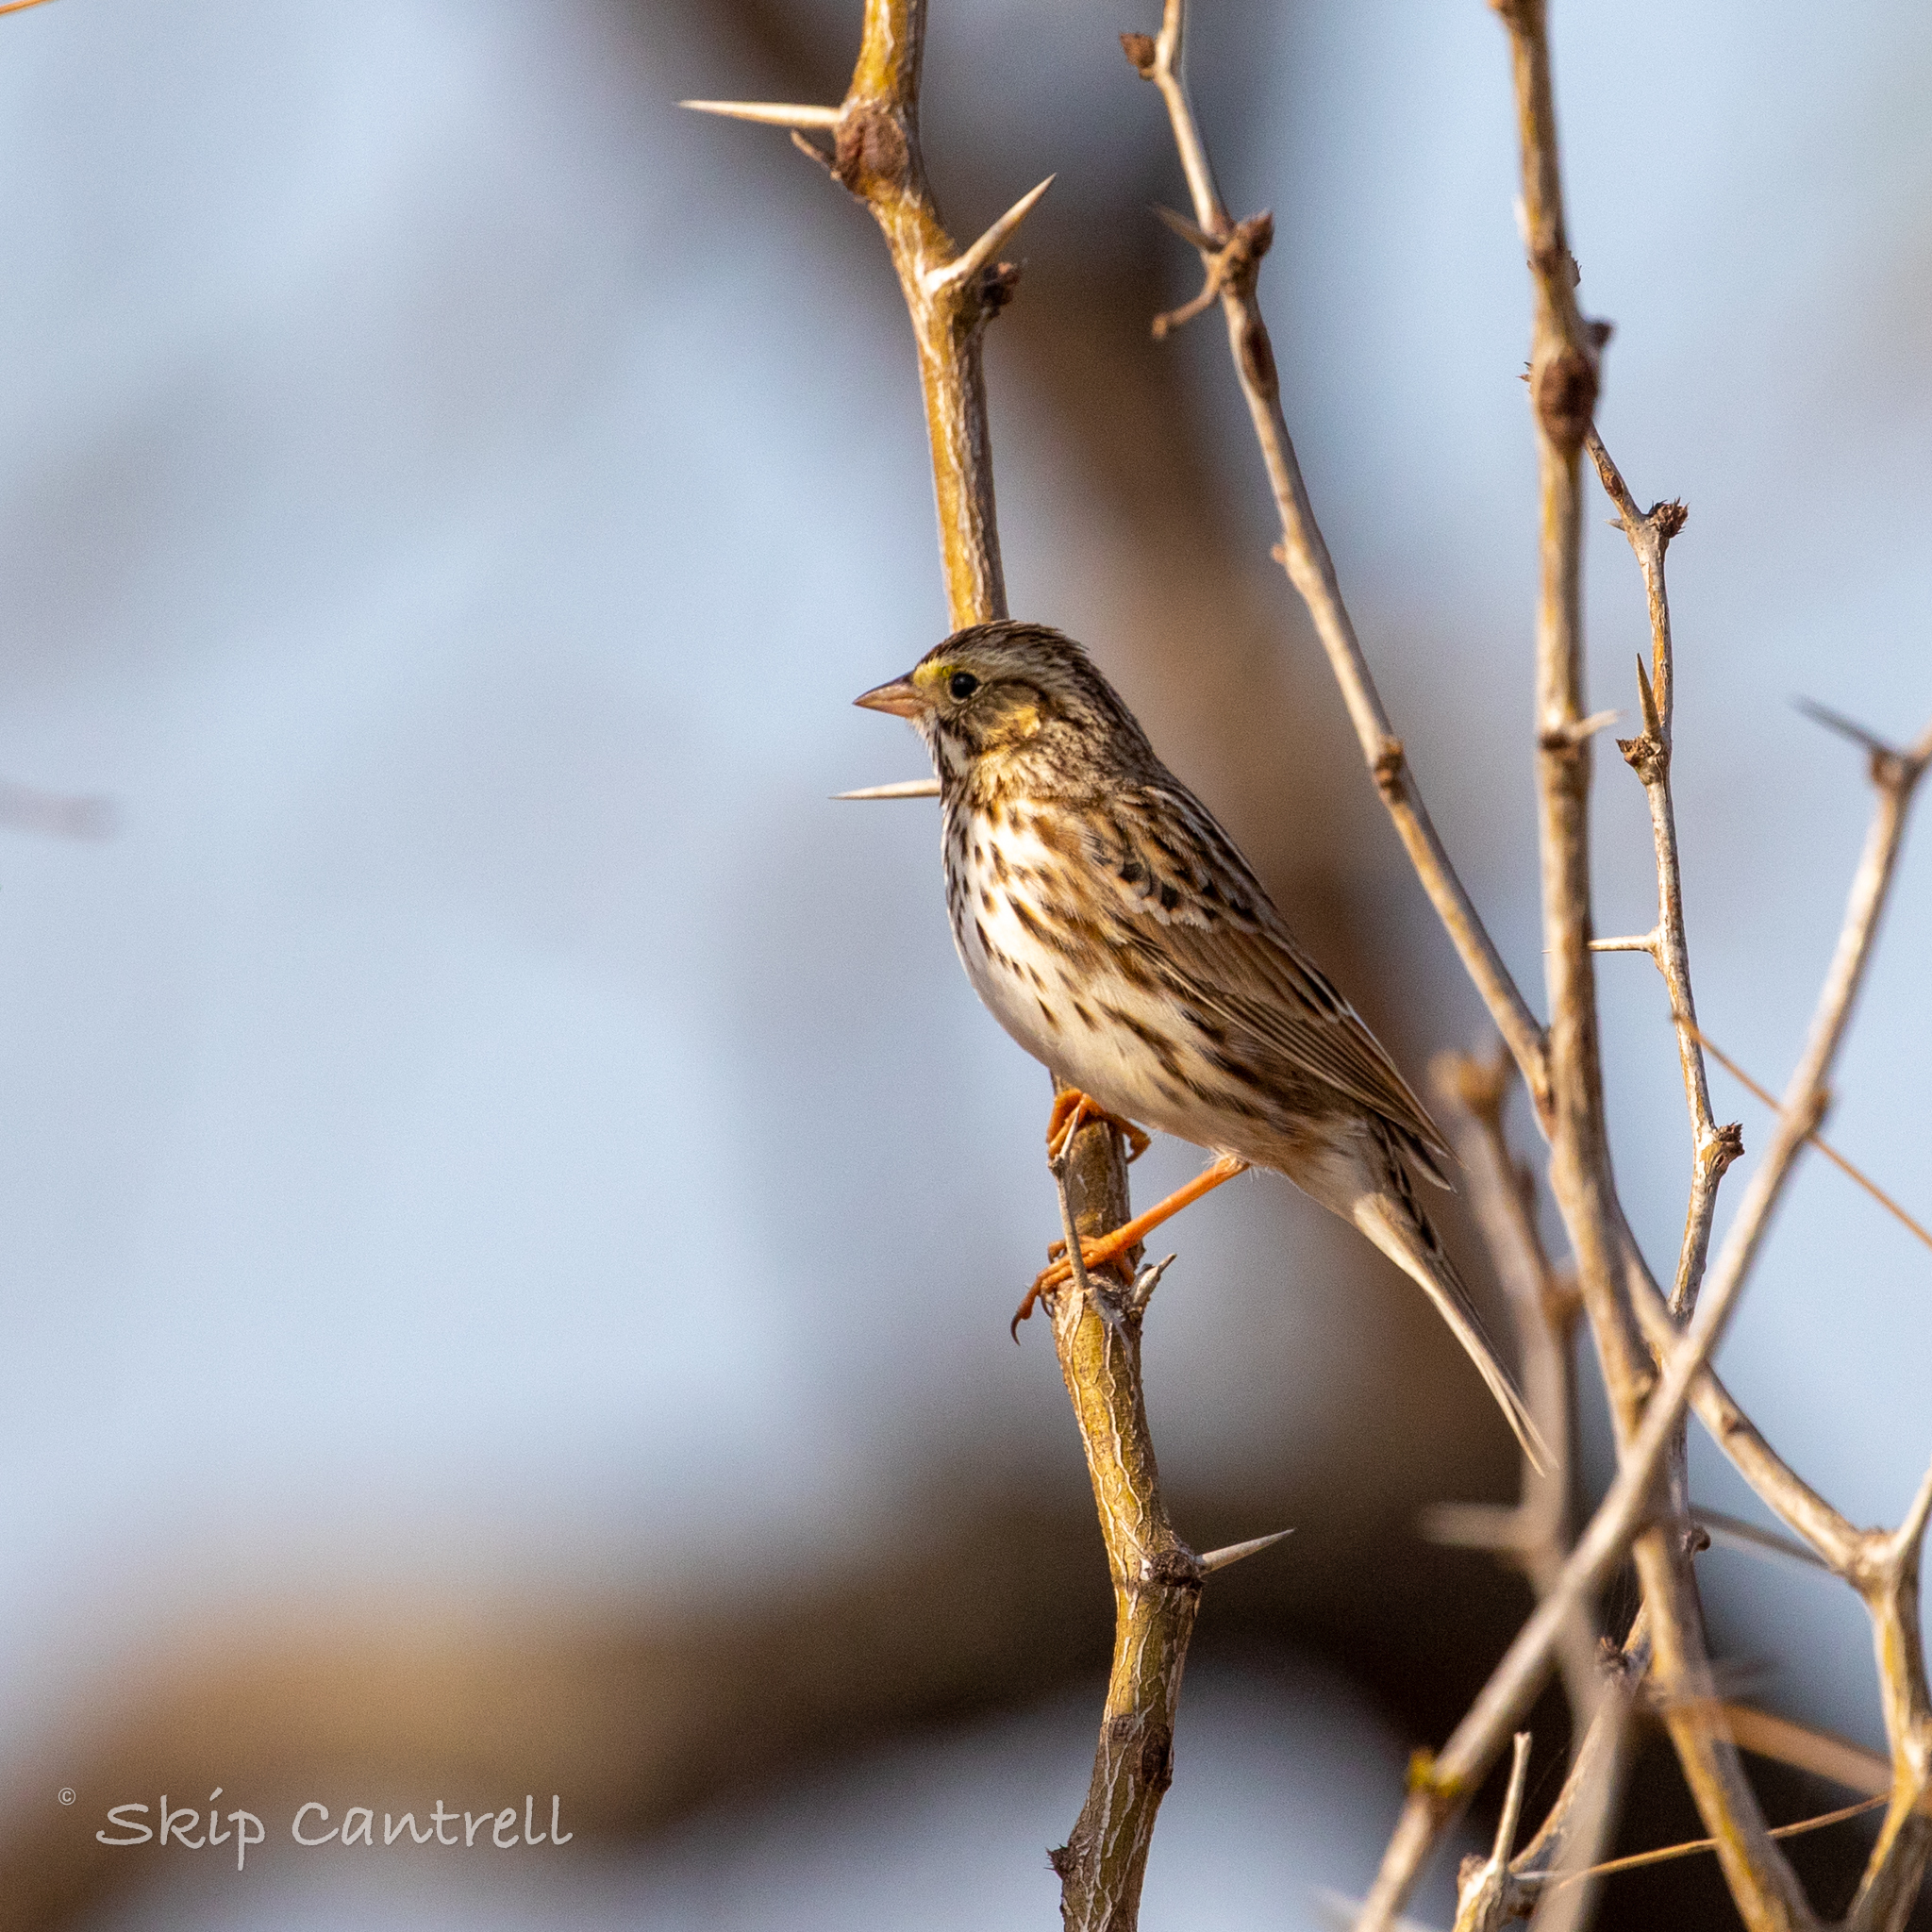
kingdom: Animalia
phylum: Chordata
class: Aves
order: Passeriformes
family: Passerellidae
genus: Passerculus
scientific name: Passerculus sandwichensis
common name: Savannah sparrow
